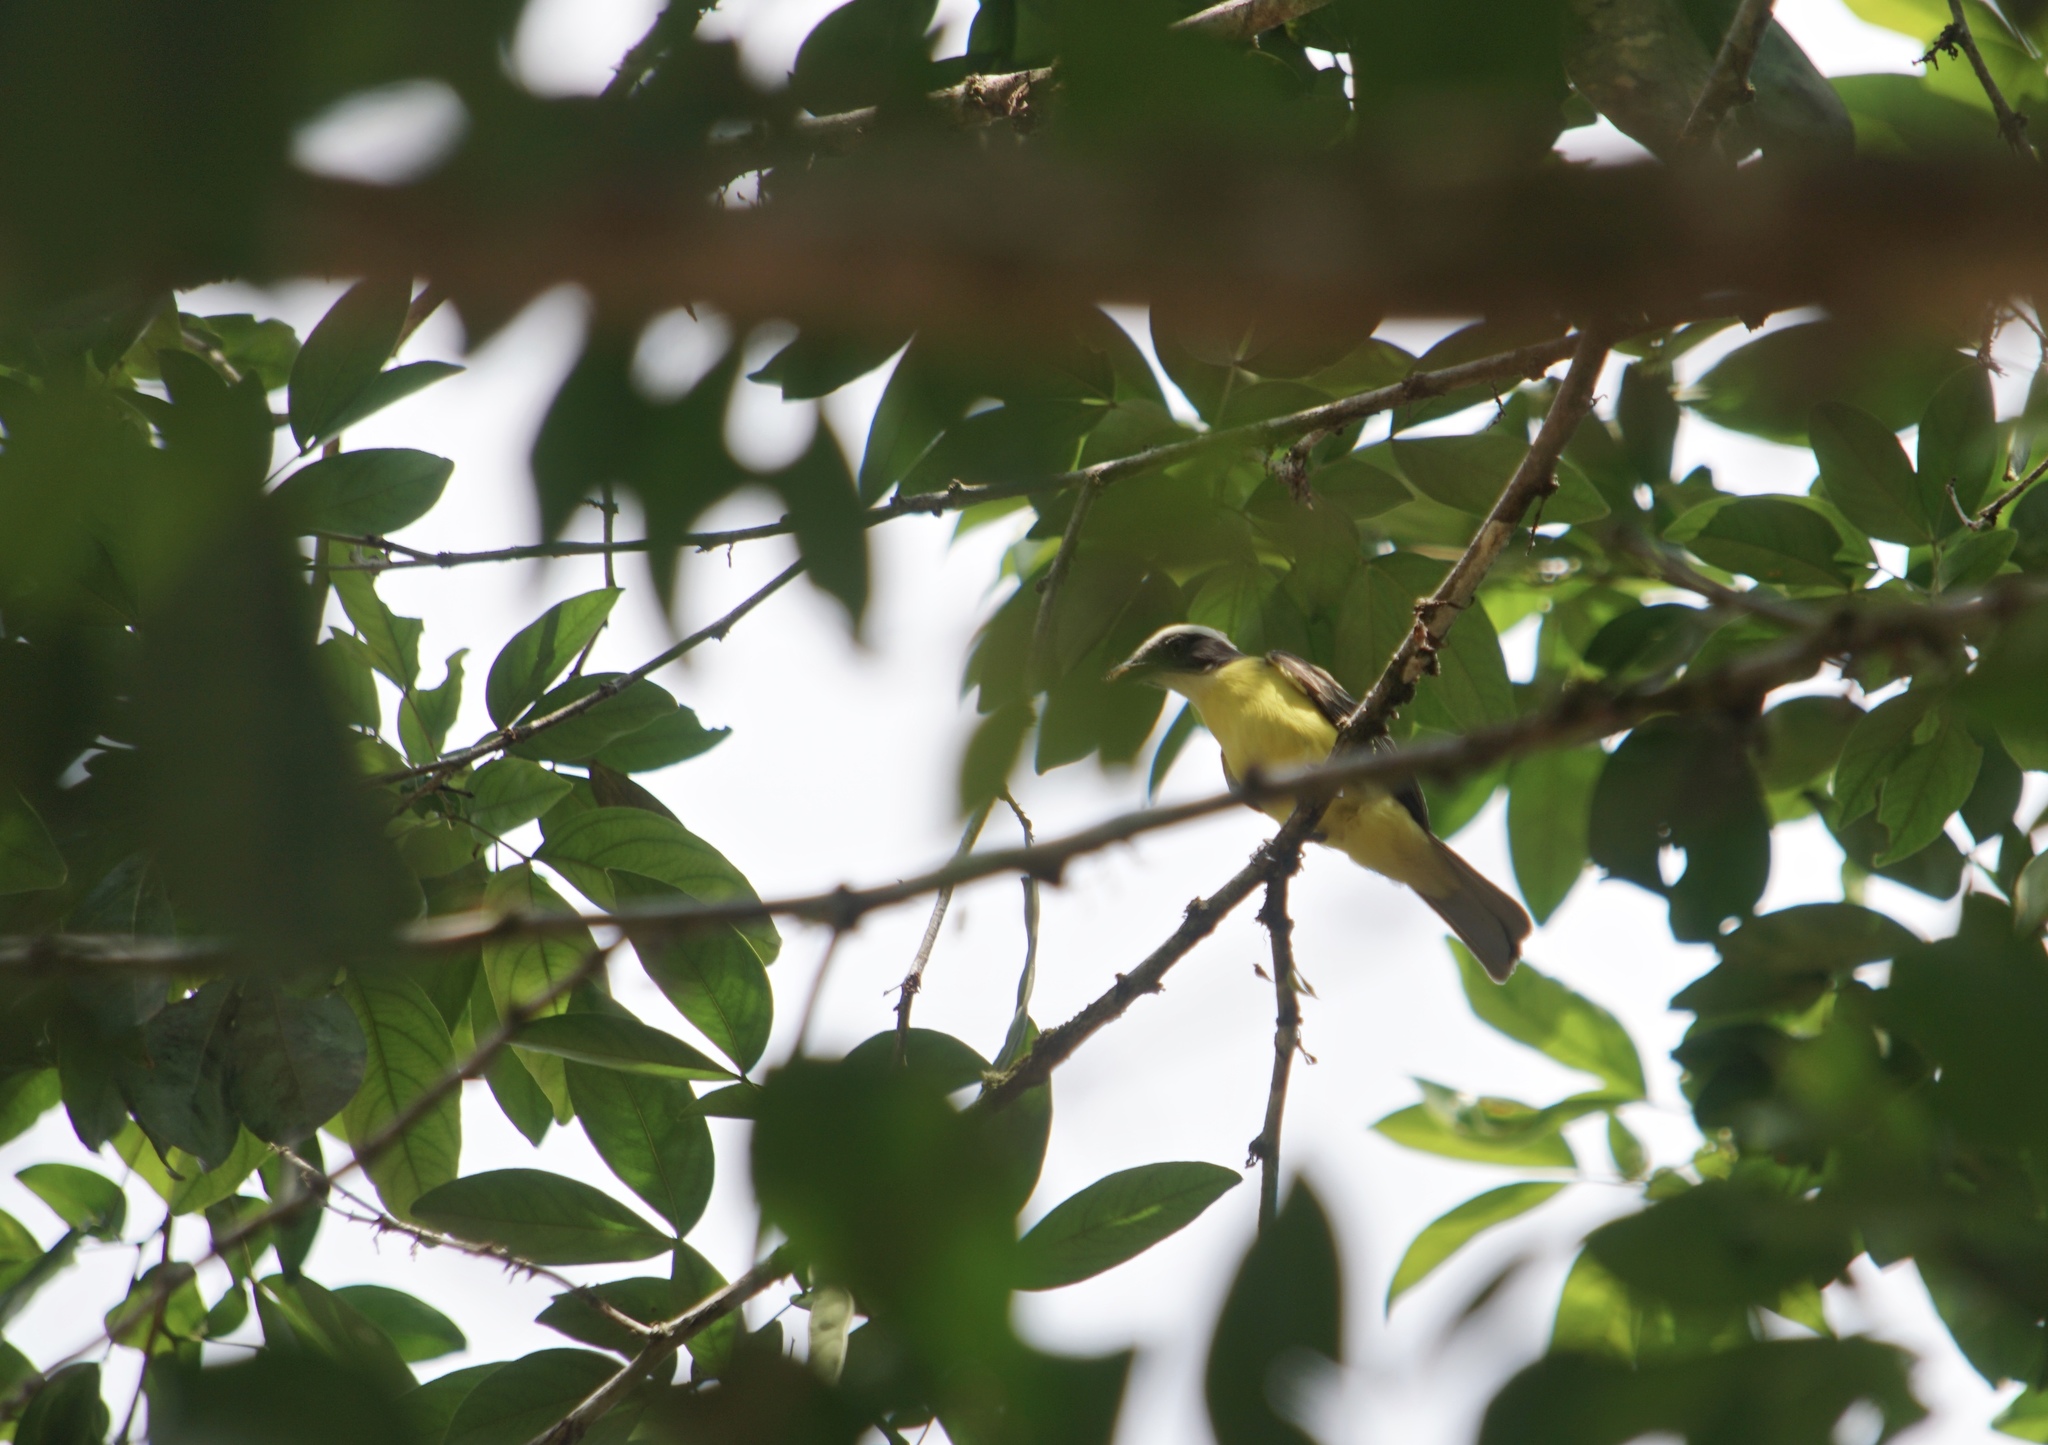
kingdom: Animalia
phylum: Chordata
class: Aves
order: Passeriformes
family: Tyrannidae
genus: Myiozetetes
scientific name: Myiozetetes similis
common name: Social flycatcher
